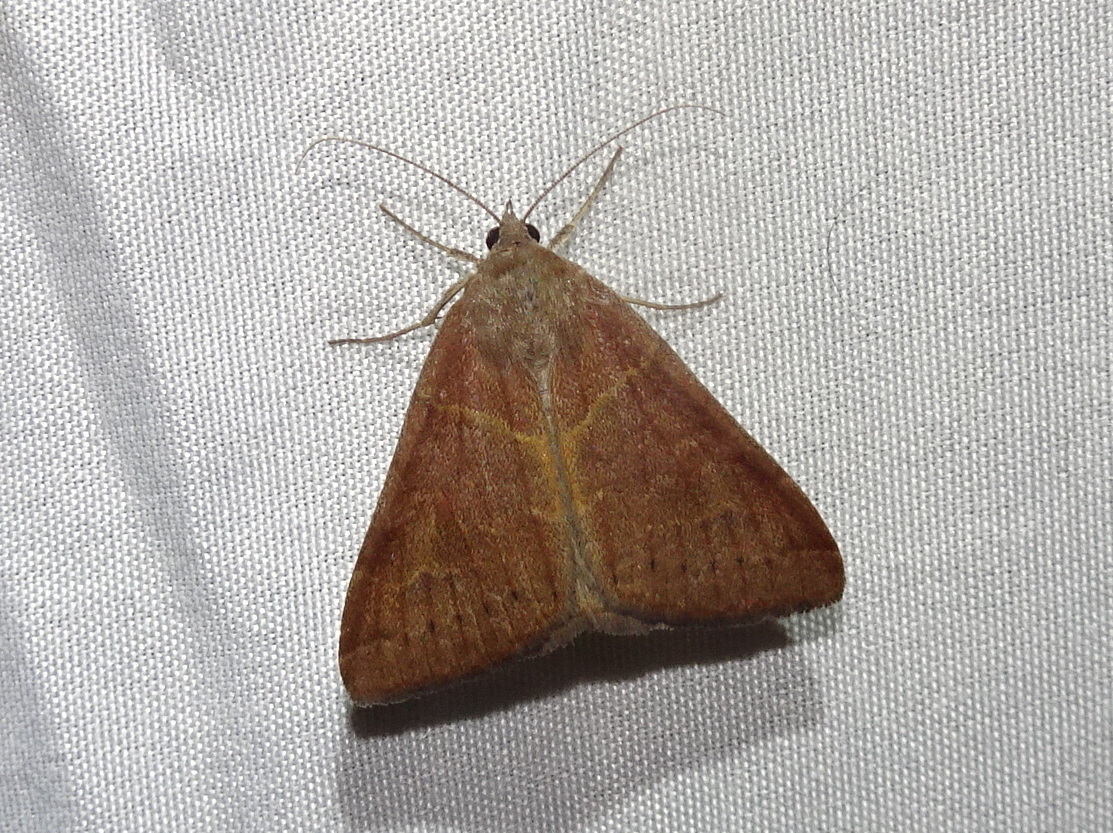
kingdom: Animalia
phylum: Arthropoda
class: Insecta
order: Lepidoptera
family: Erebidae
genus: Caenurgina
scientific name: Caenurgina erechtea
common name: Forage looper moth
